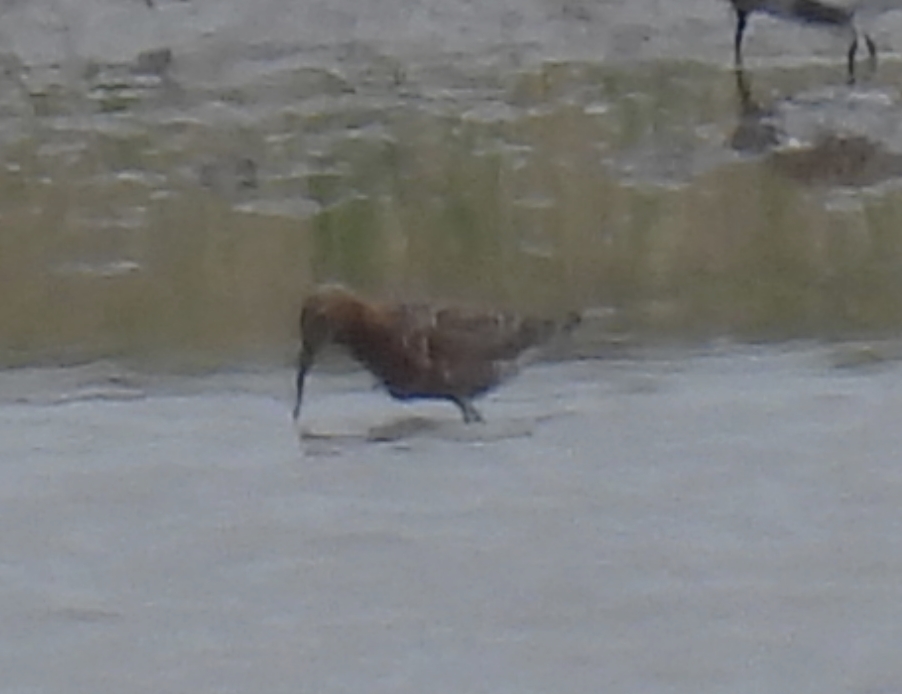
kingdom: Animalia
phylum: Chordata
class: Aves
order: Charadriiformes
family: Scolopacidae
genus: Calidris
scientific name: Calidris ferruginea
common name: Curlew sandpiper
